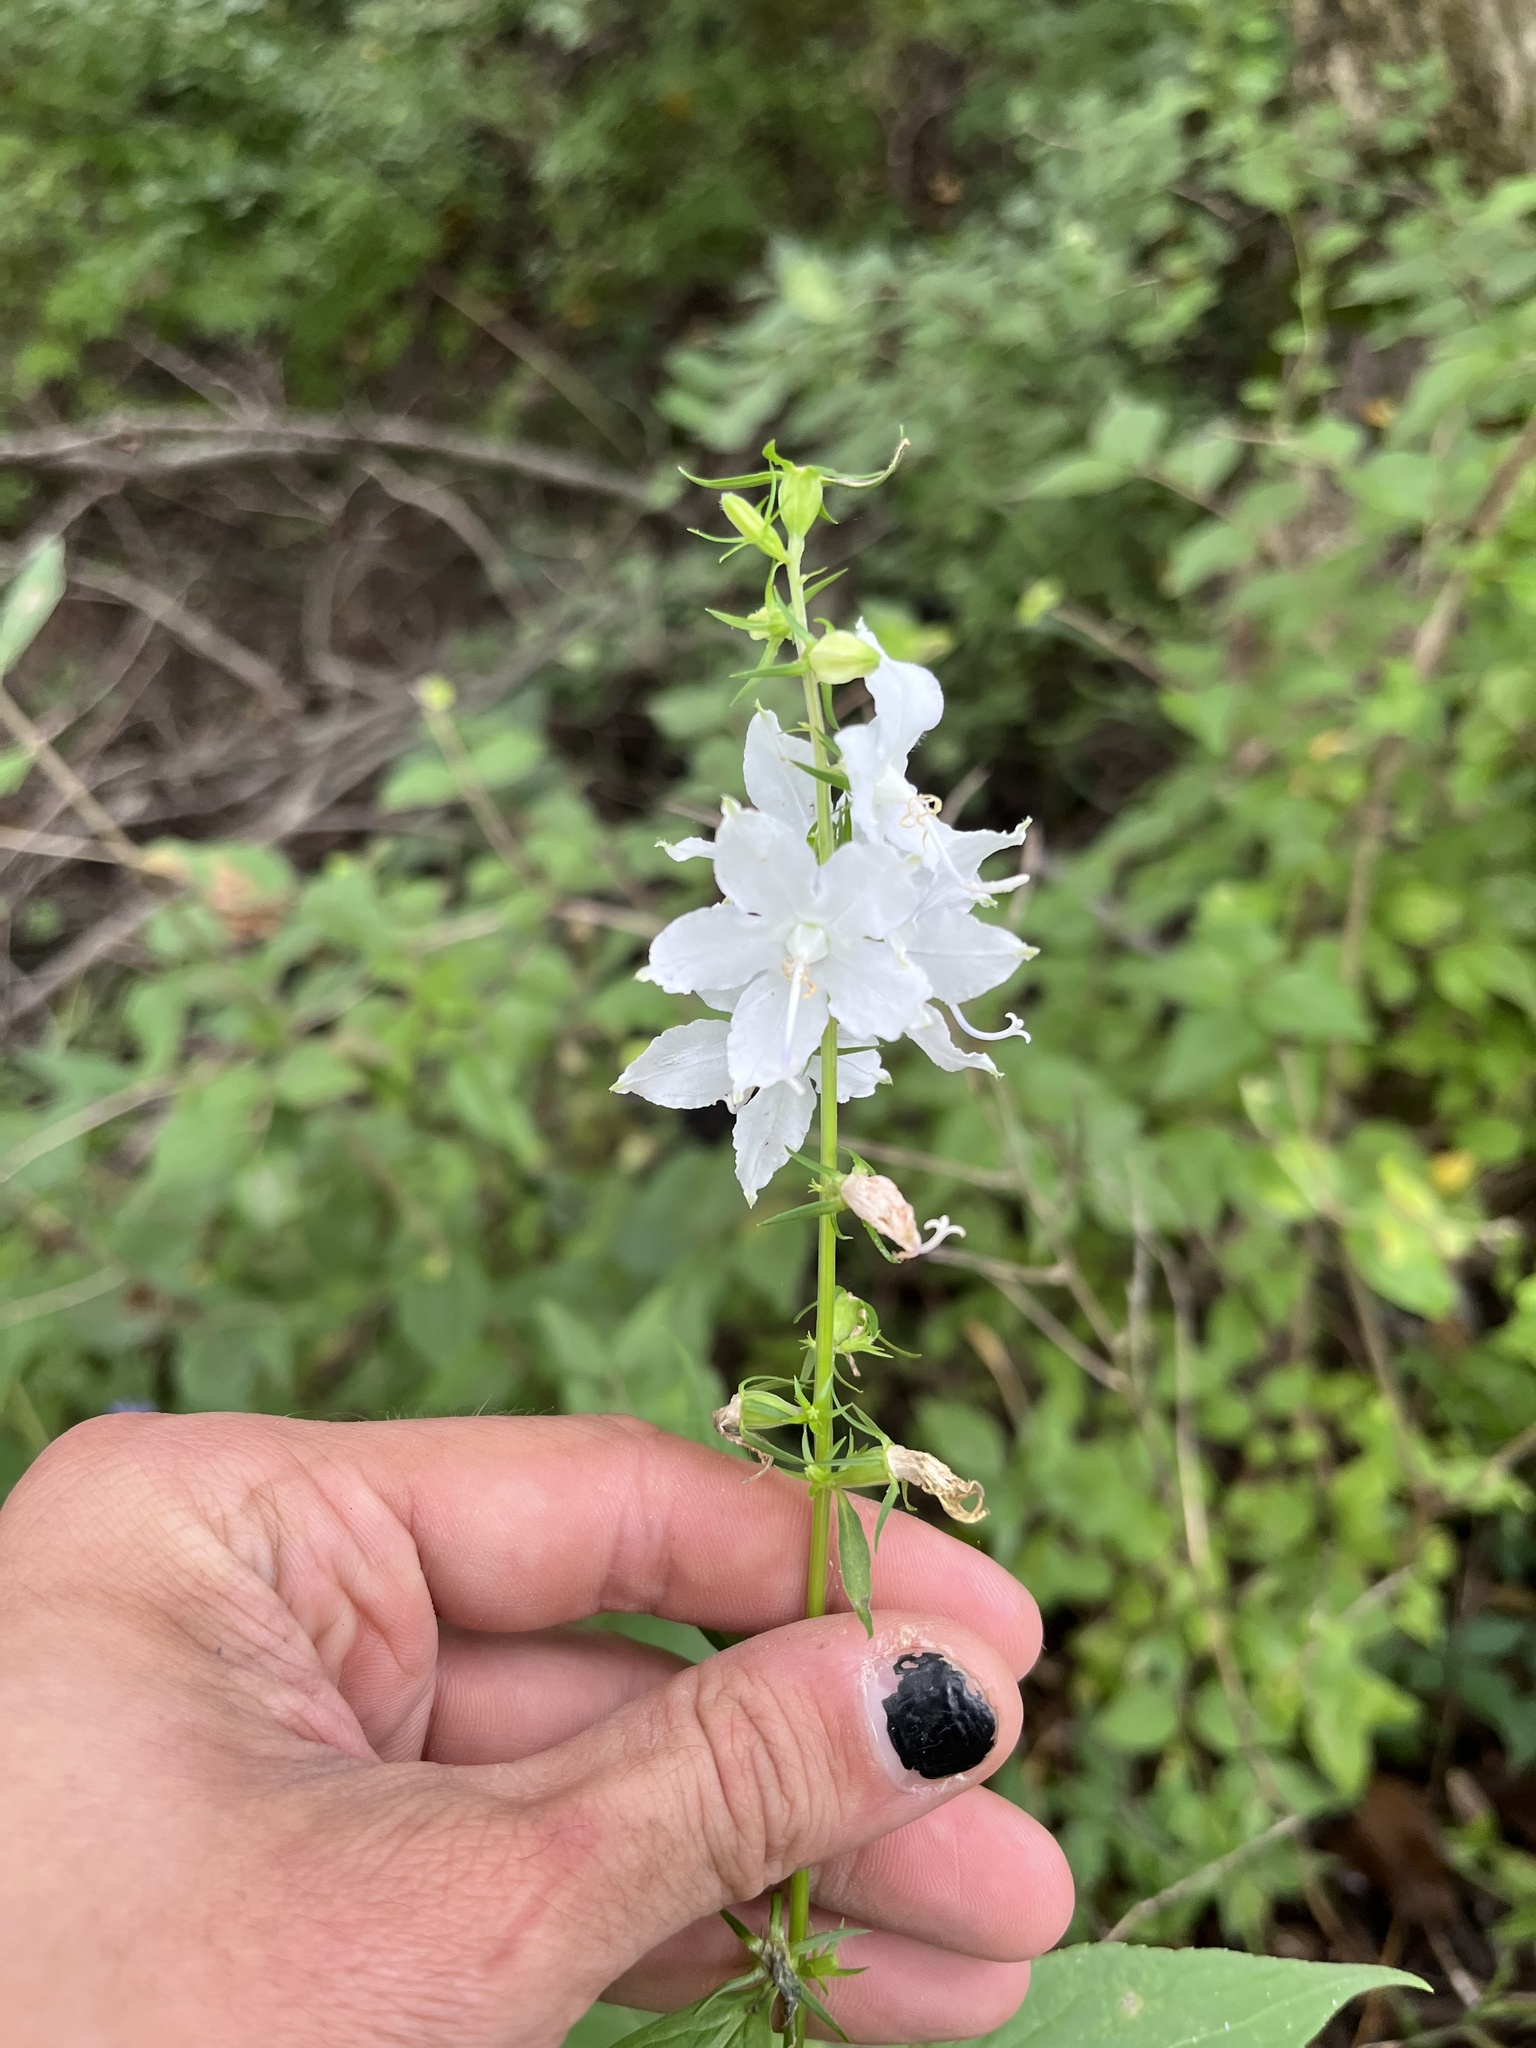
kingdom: Plantae
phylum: Tracheophyta
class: Magnoliopsida
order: Asterales
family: Campanulaceae
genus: Campanulastrum
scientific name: Campanulastrum americanum
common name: American bellflower
